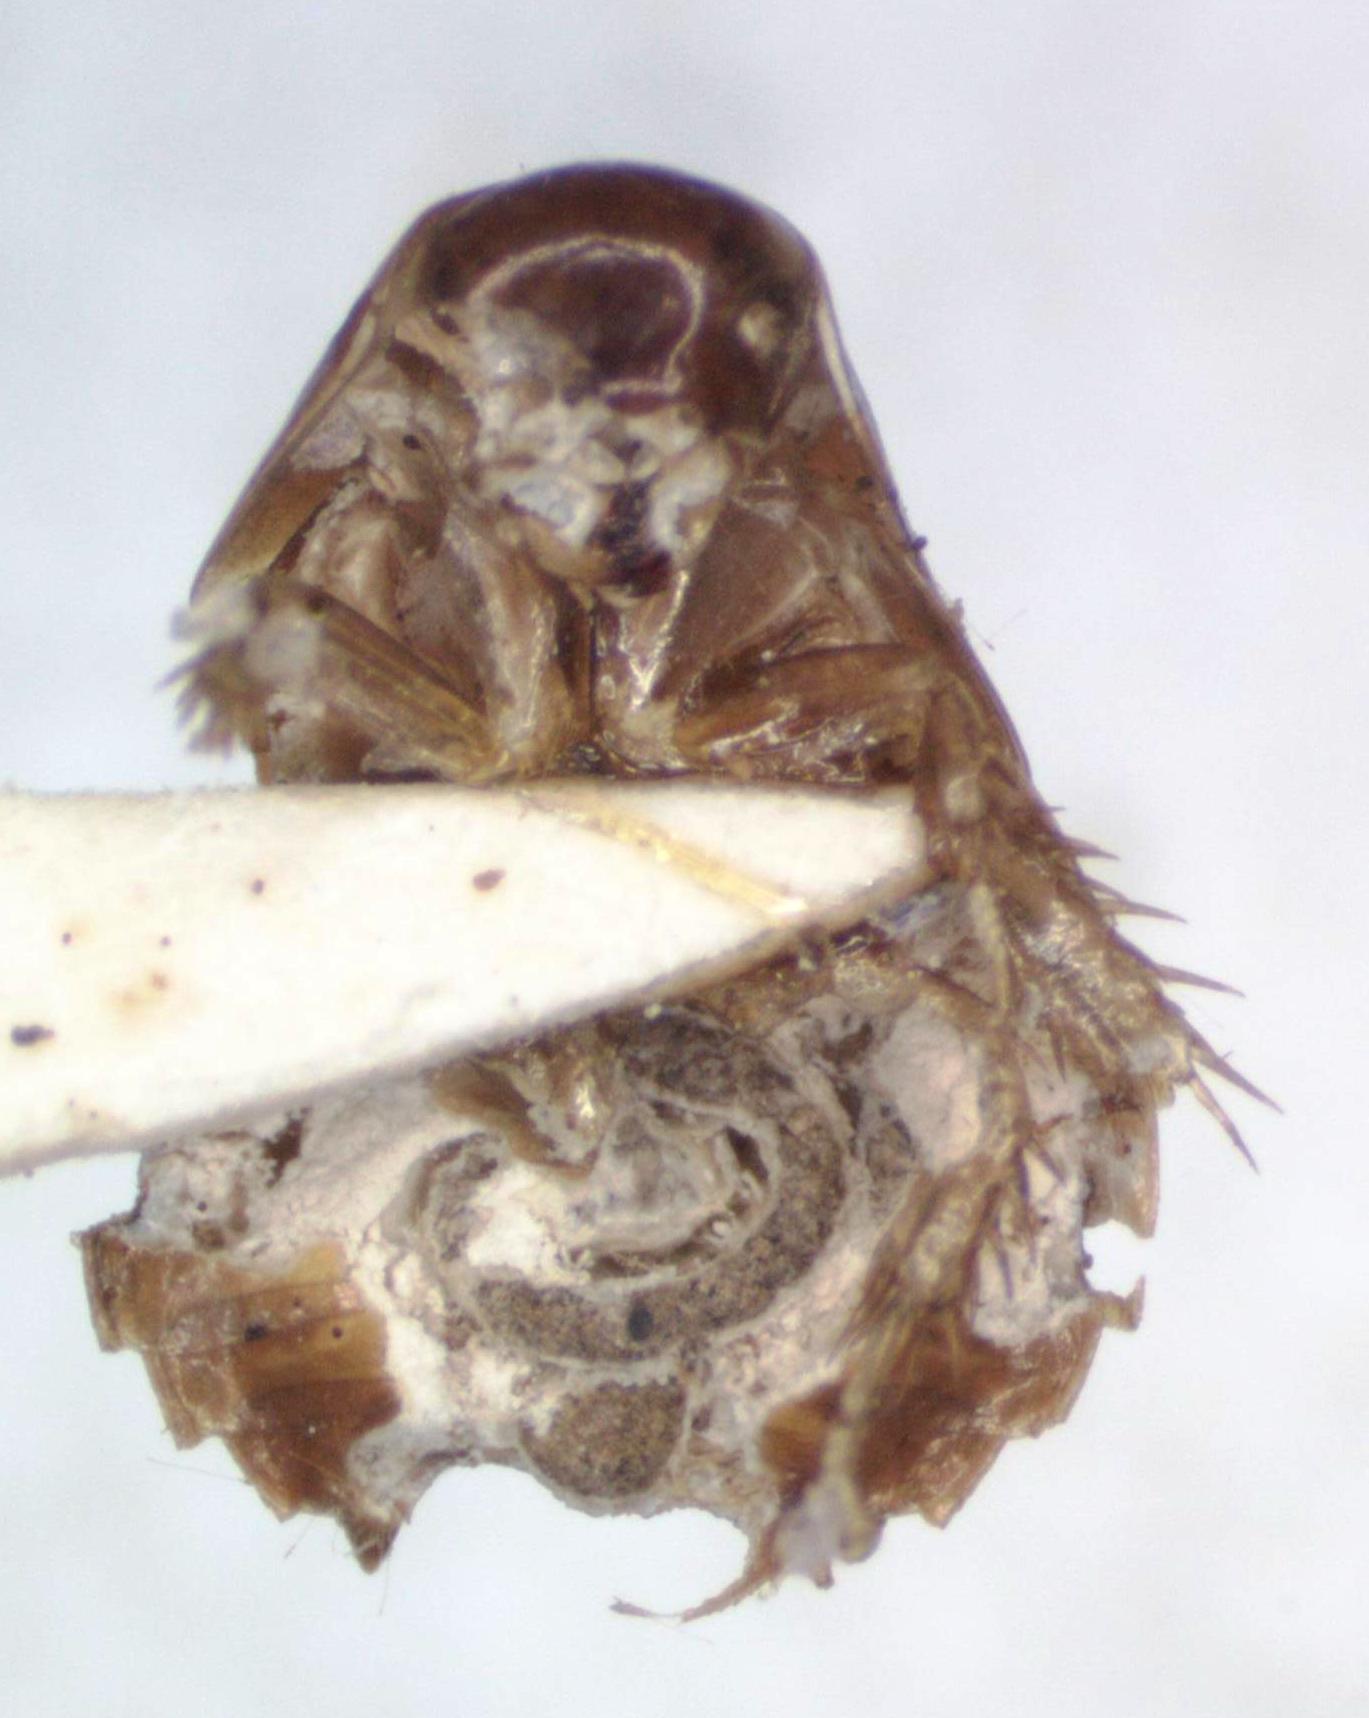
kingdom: Animalia
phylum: Arthropoda
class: Insecta
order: Blattodea
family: Corydiidae
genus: Myrmecoblatta
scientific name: Myrmecoblatta wheeleri
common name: Wheeler's ant roach
